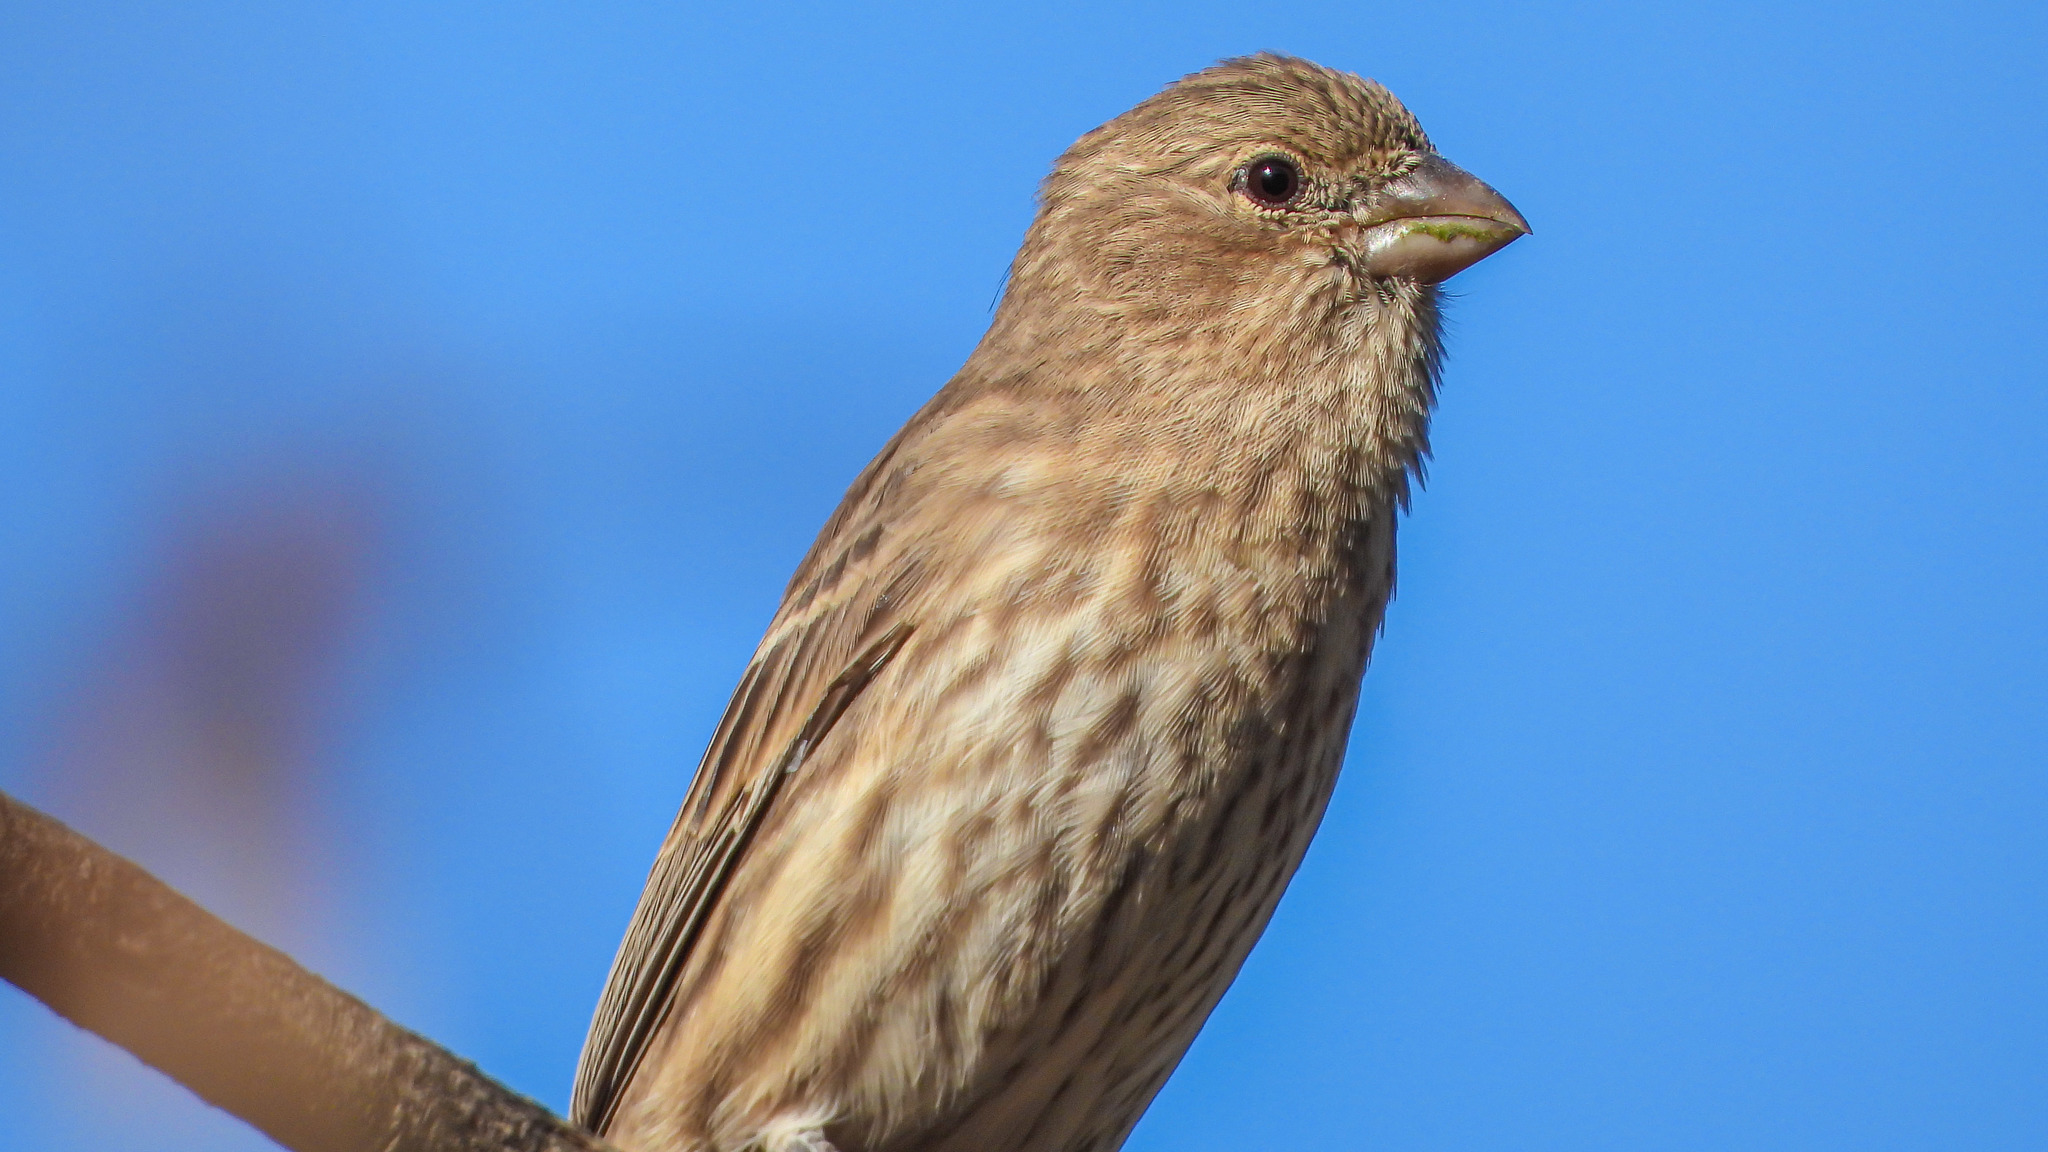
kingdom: Animalia
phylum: Chordata
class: Aves
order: Passeriformes
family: Fringillidae
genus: Haemorhous
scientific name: Haemorhous mexicanus
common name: House finch
